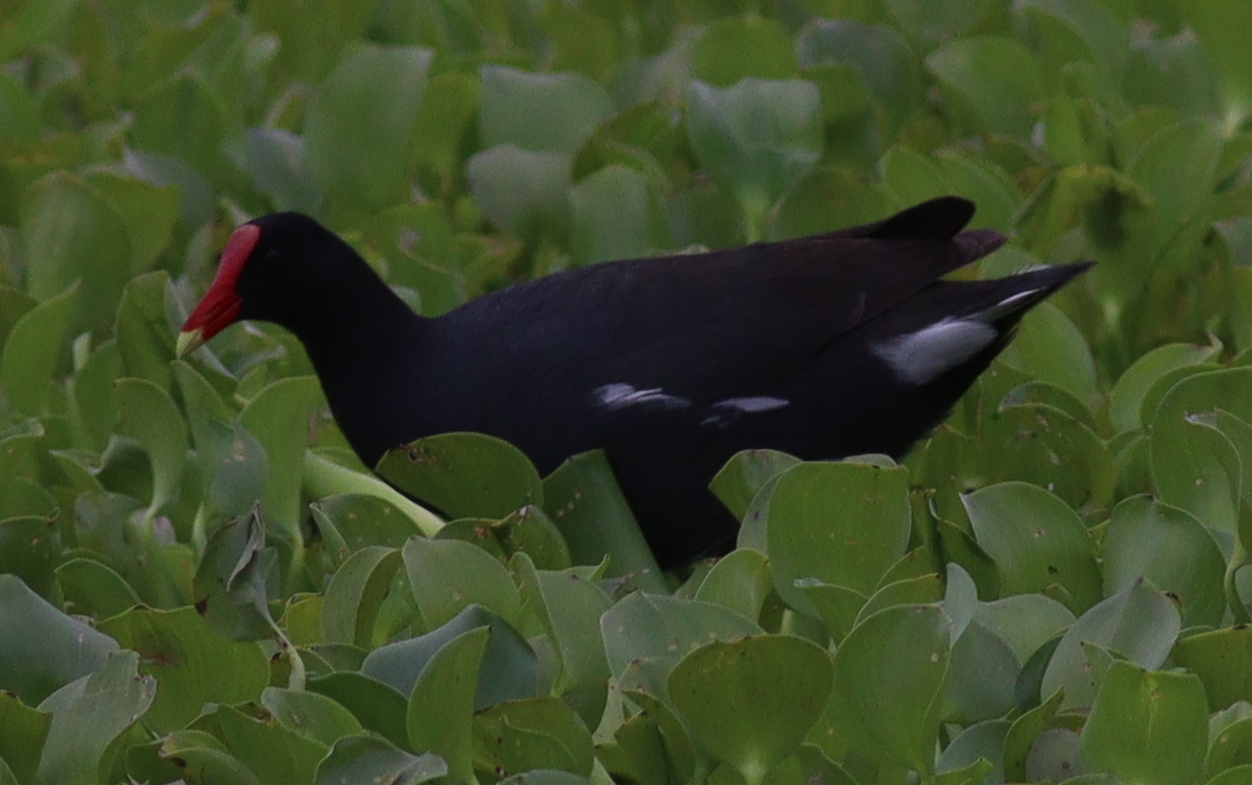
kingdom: Animalia
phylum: Chordata
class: Aves
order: Gruiformes
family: Rallidae
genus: Gallinula
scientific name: Gallinula chloropus
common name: Common moorhen
